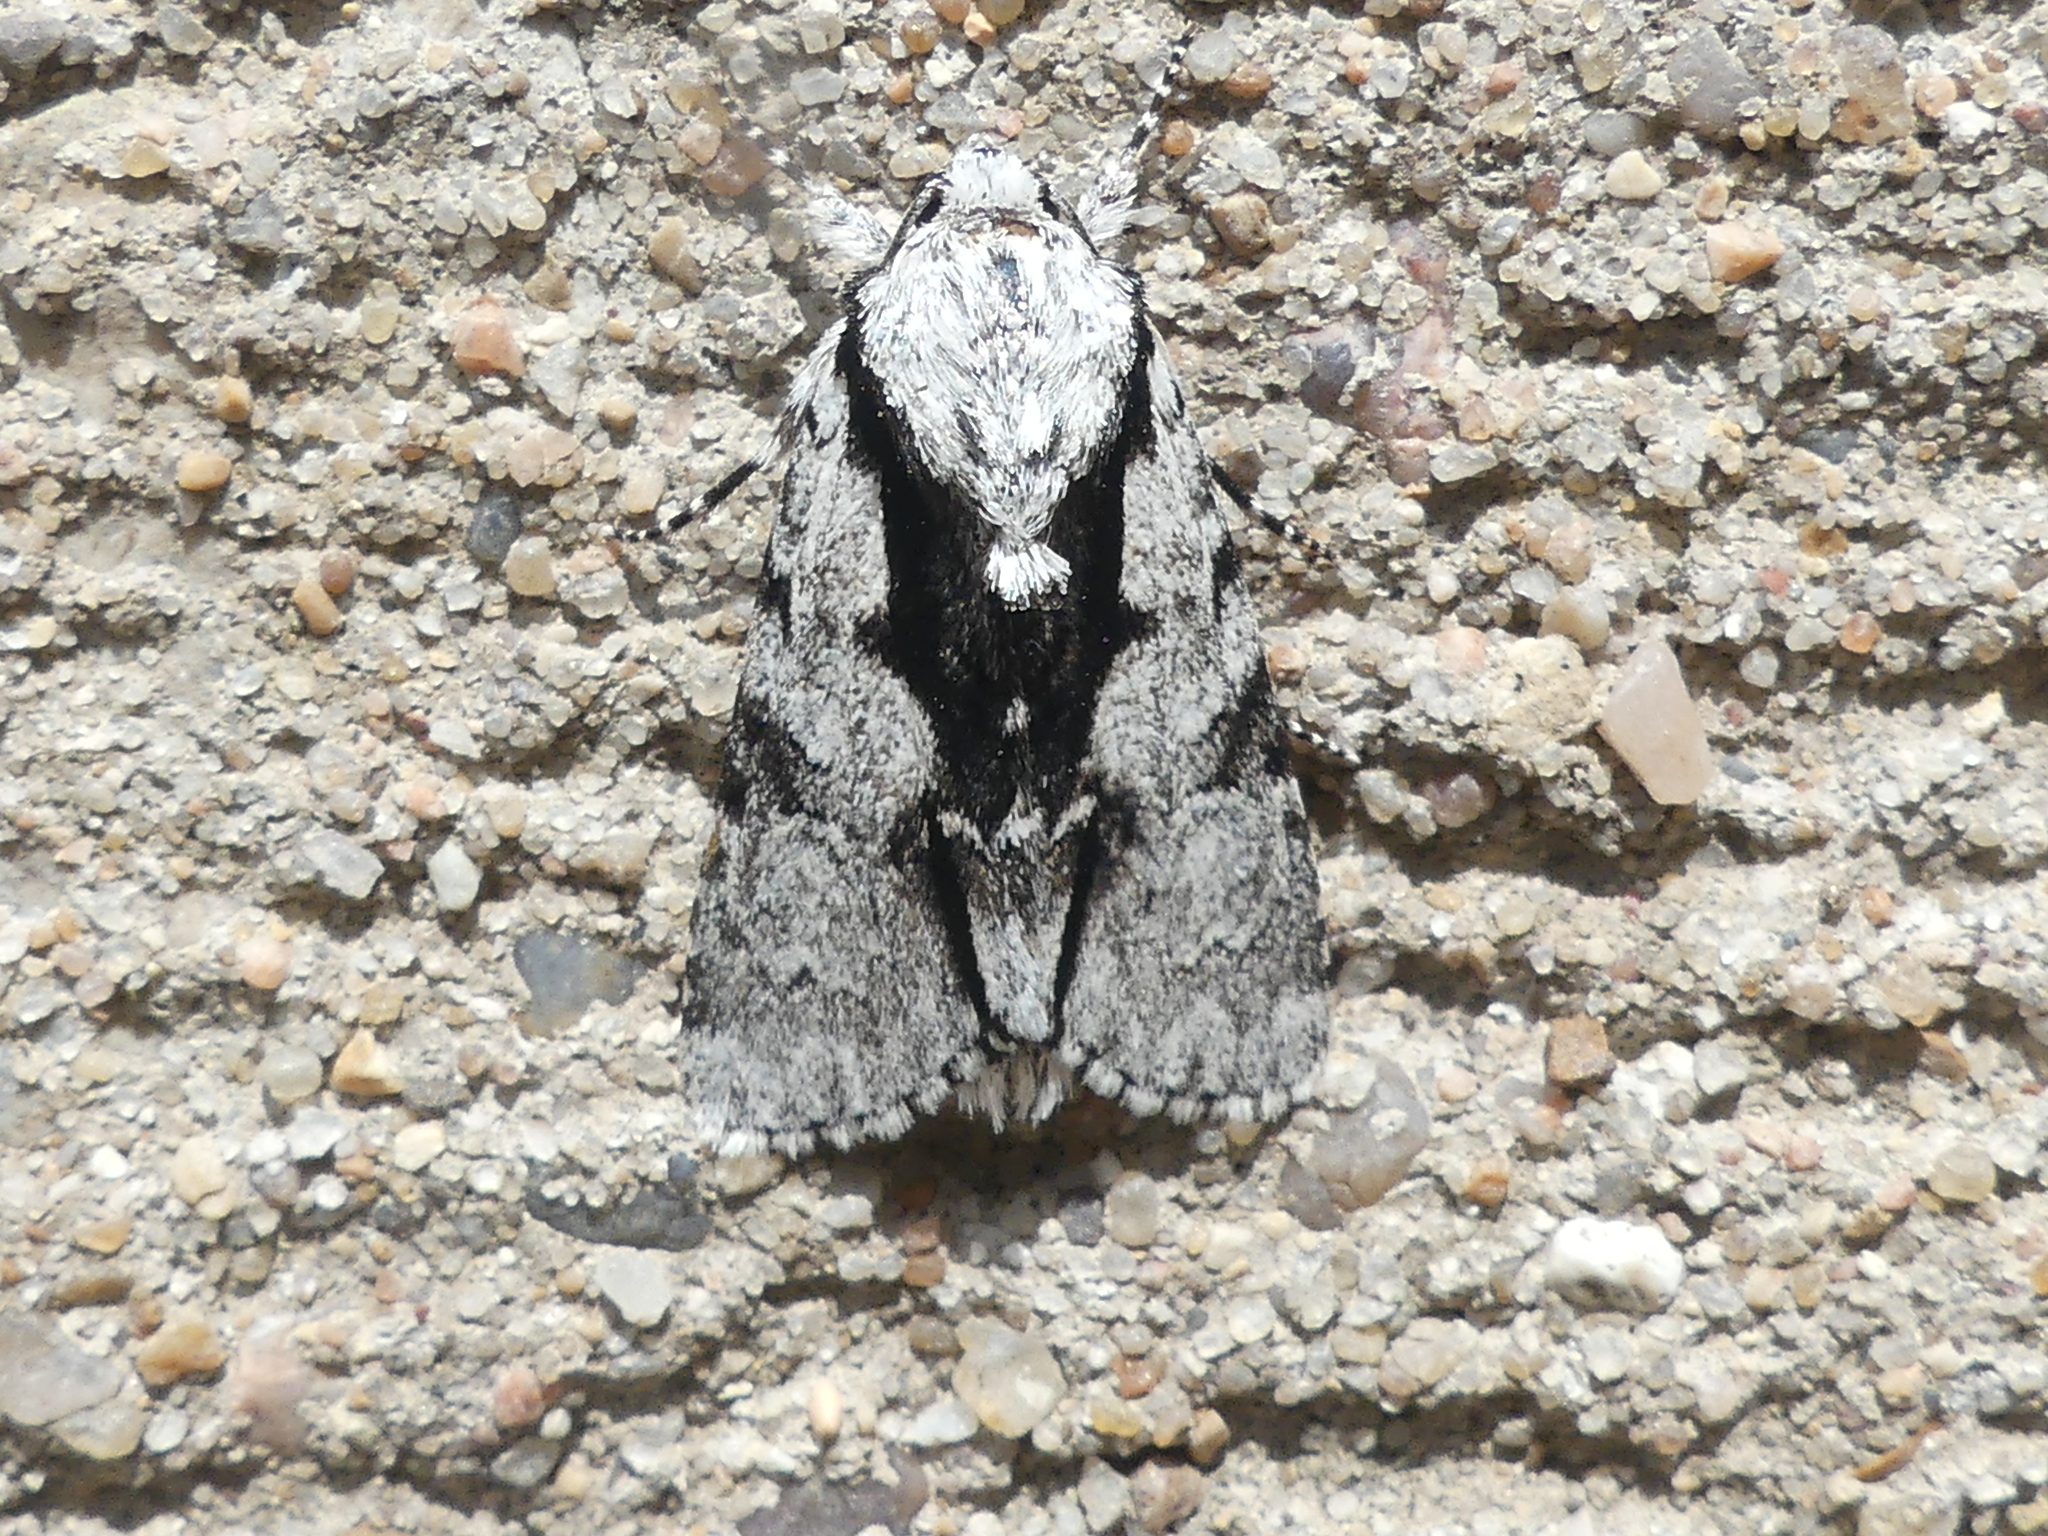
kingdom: Animalia
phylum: Arthropoda
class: Insecta
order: Lepidoptera
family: Noctuidae
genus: Acronicta
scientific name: Acronicta funeralis
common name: Funerary dagger
